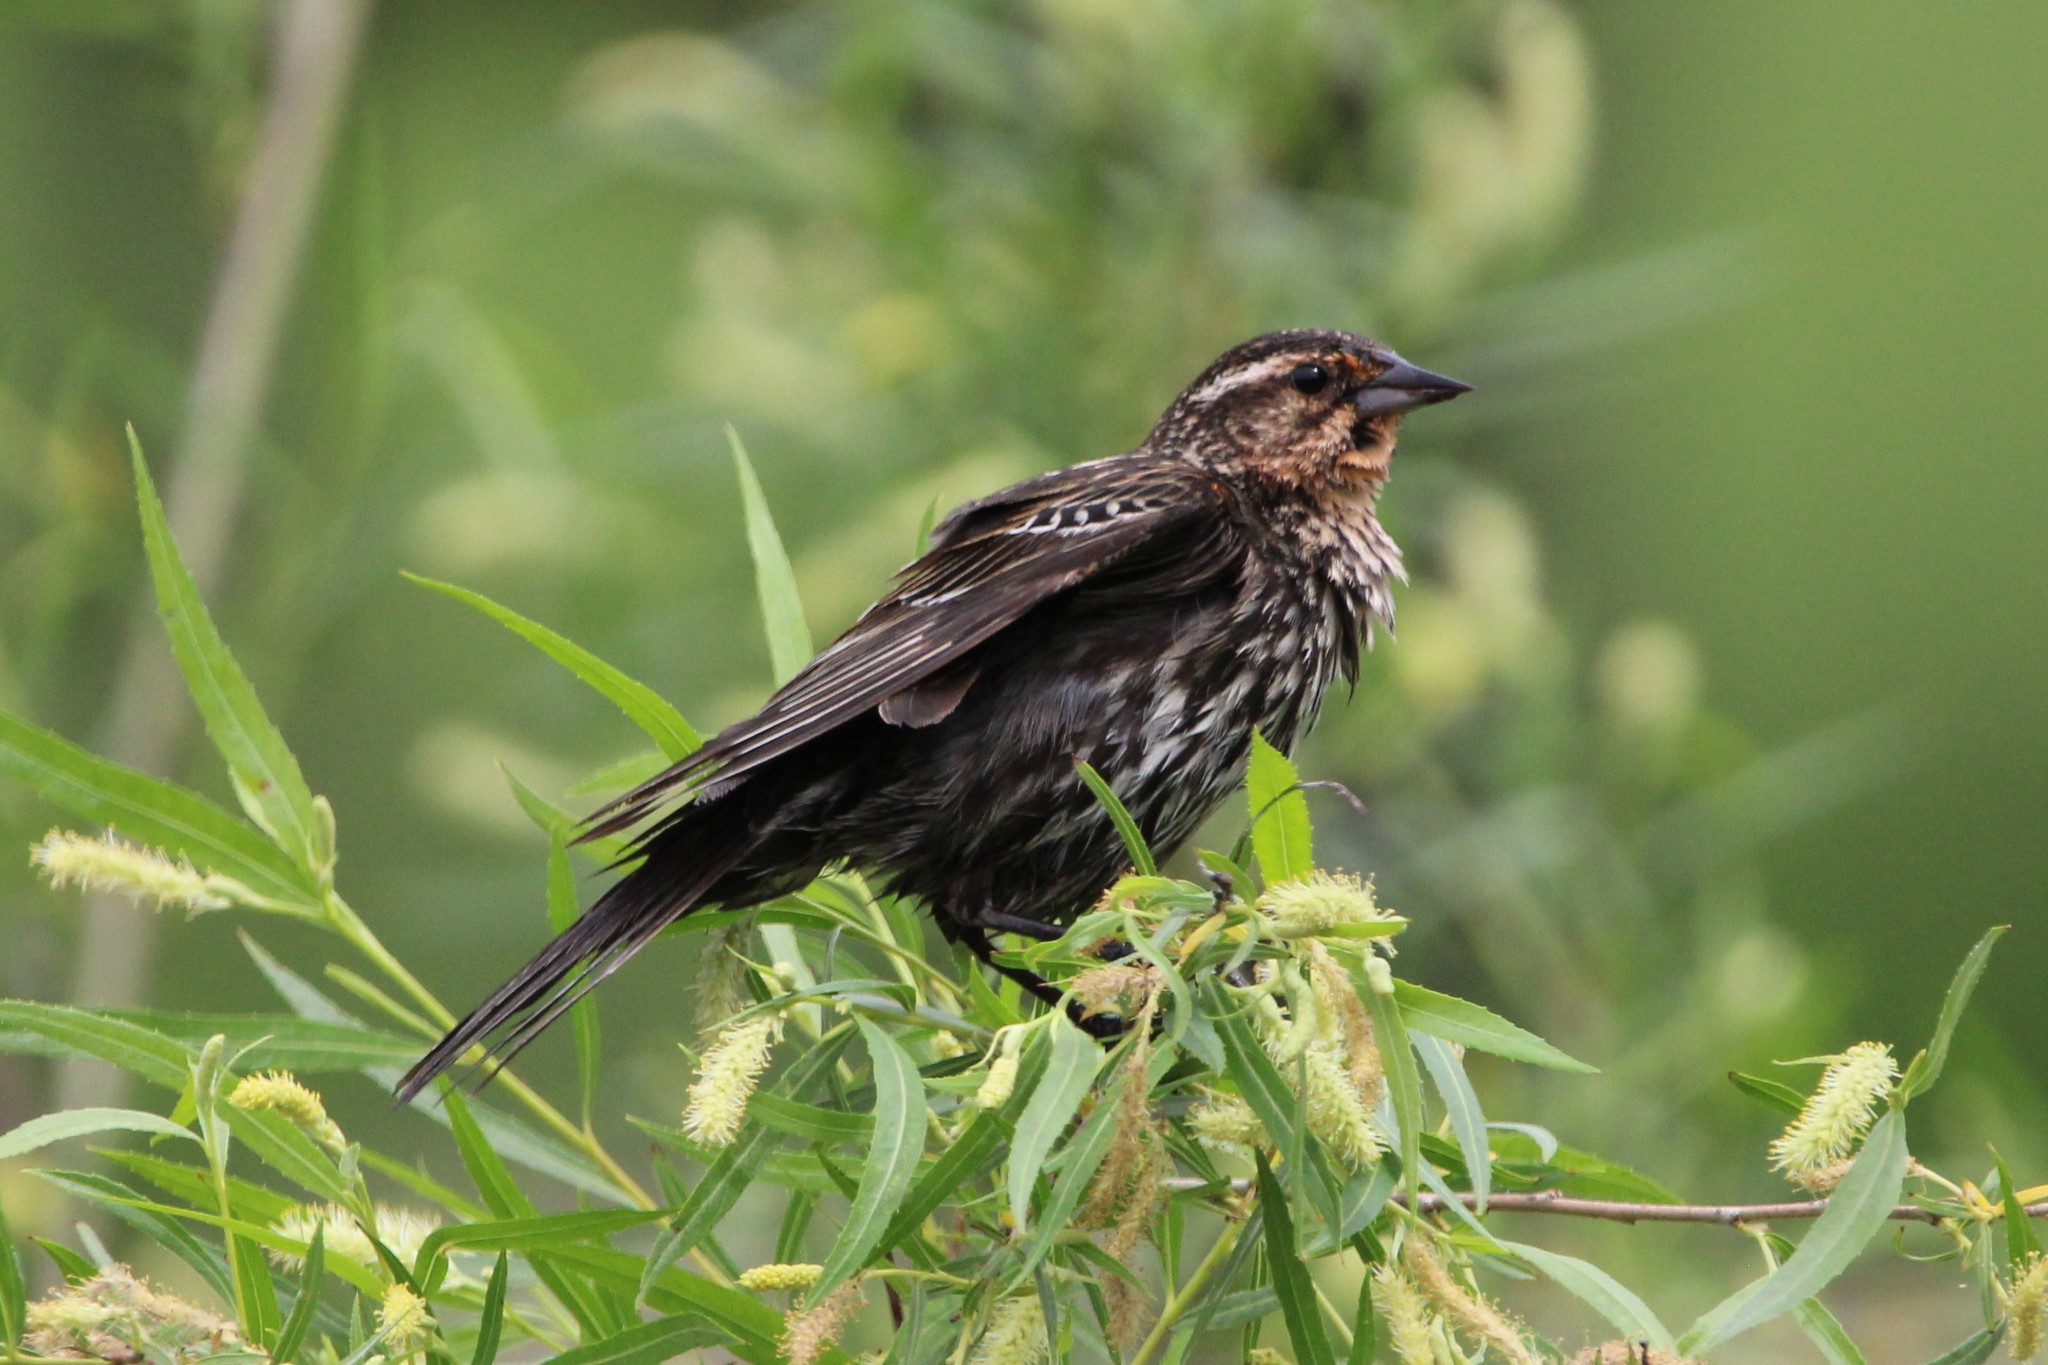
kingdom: Animalia
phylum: Chordata
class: Aves
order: Passeriformes
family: Icteridae
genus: Agelaius
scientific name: Agelaius phoeniceus
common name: Red-winged blackbird
